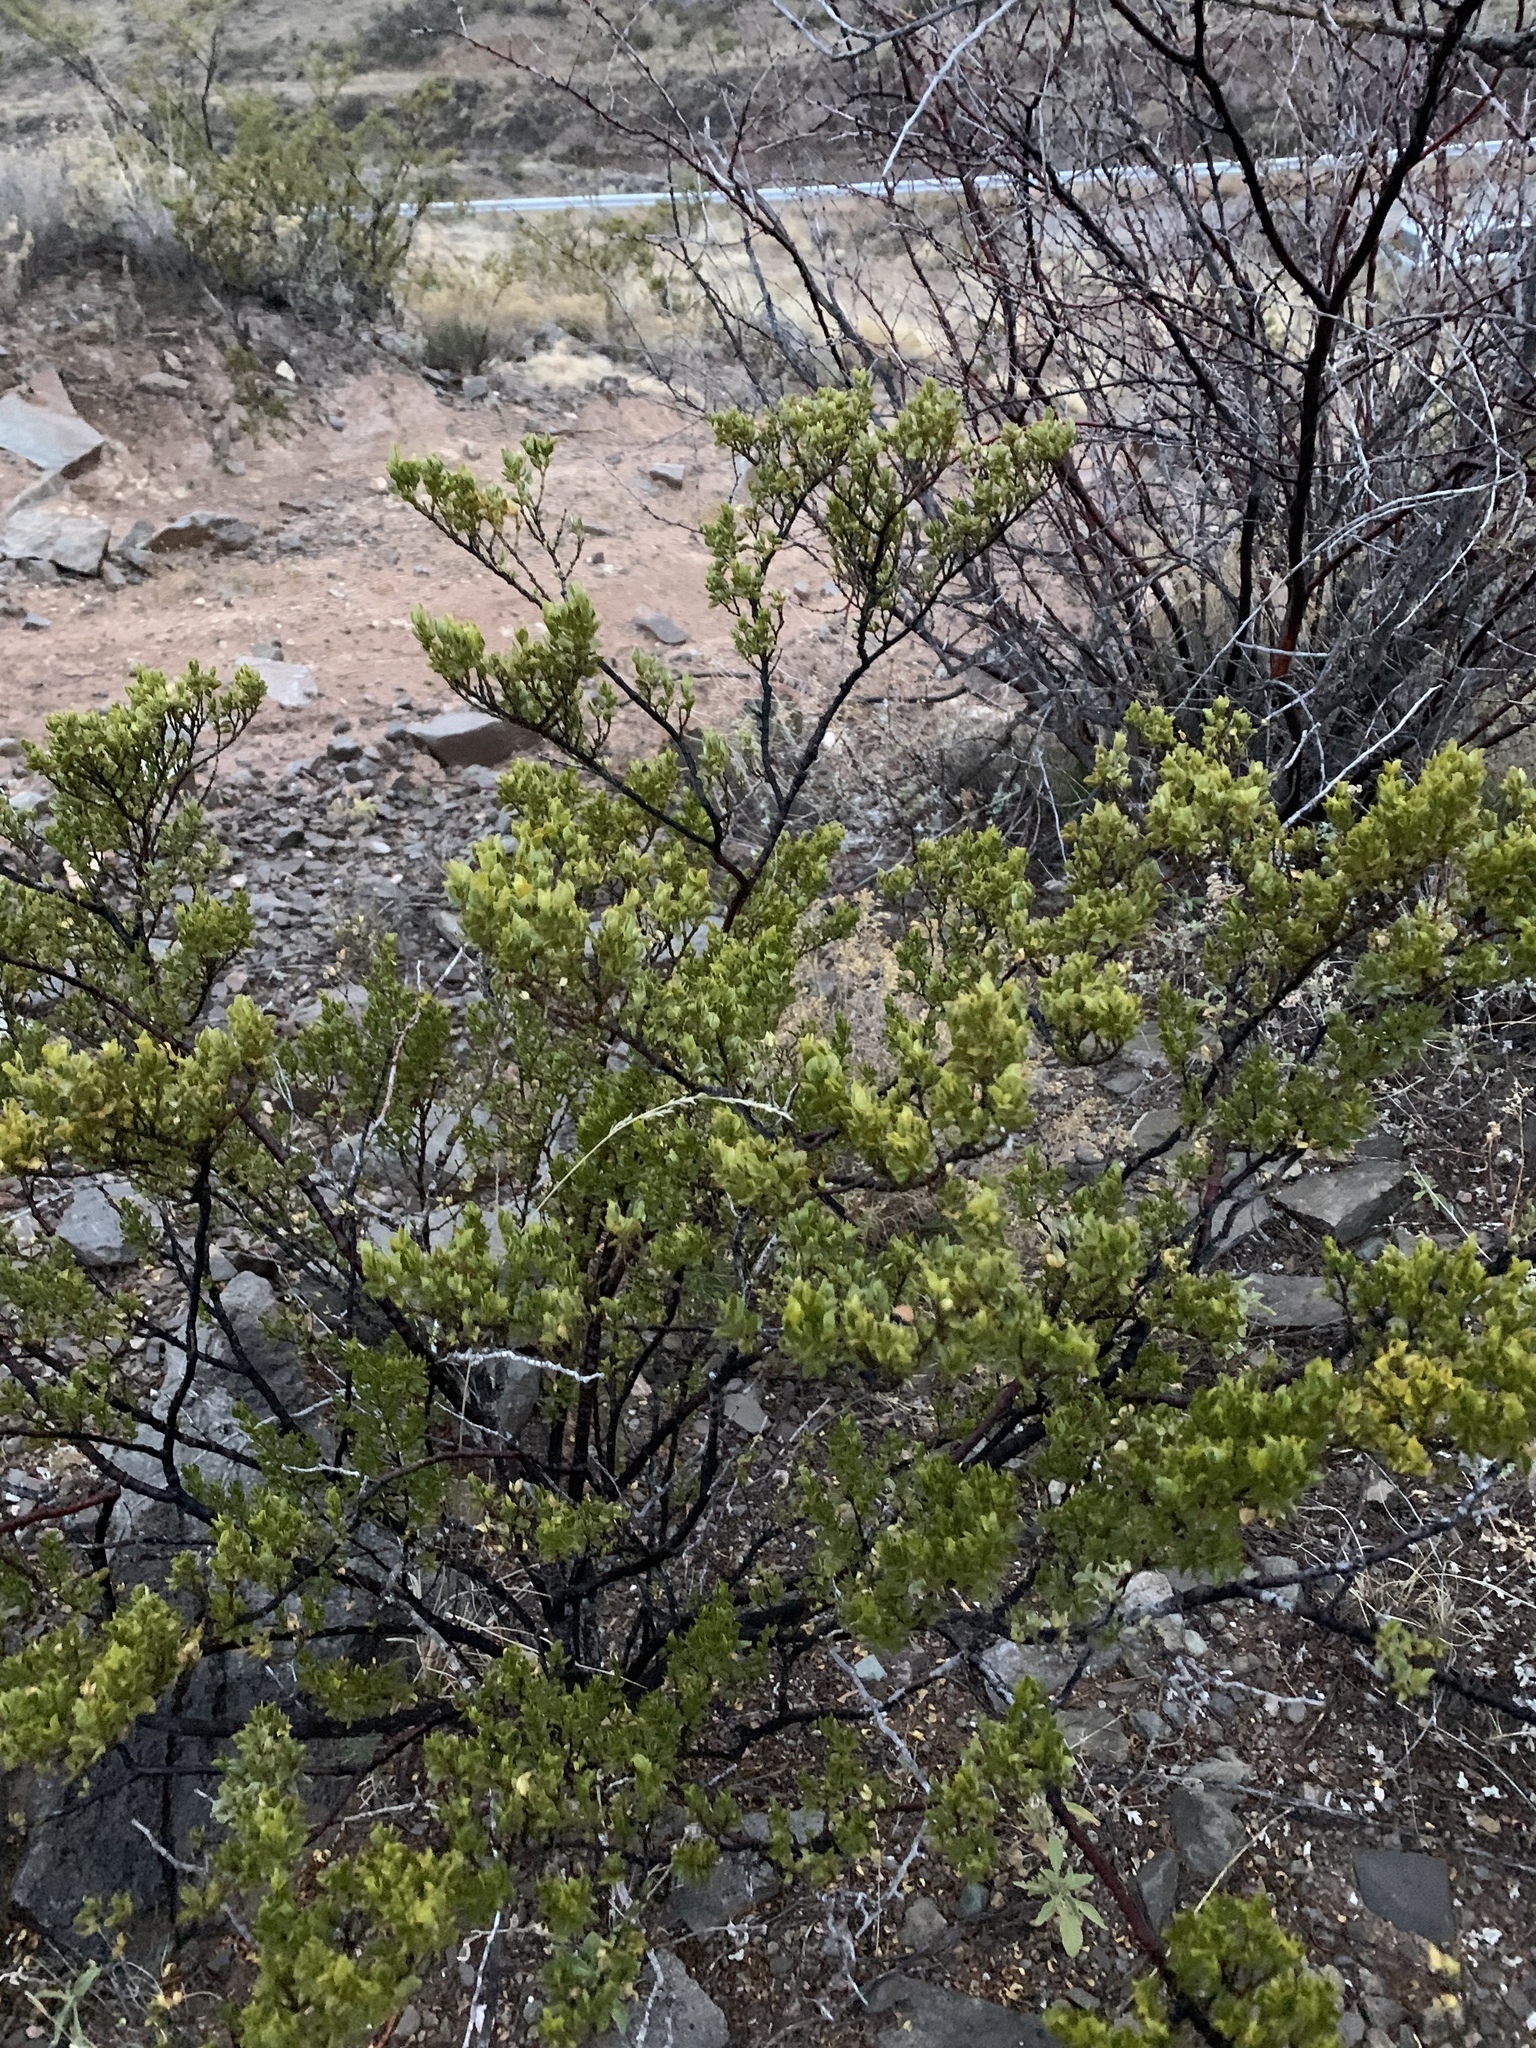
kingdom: Plantae
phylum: Tracheophyta
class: Magnoliopsida
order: Zygophyllales
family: Zygophyllaceae
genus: Larrea
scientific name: Larrea tridentata
